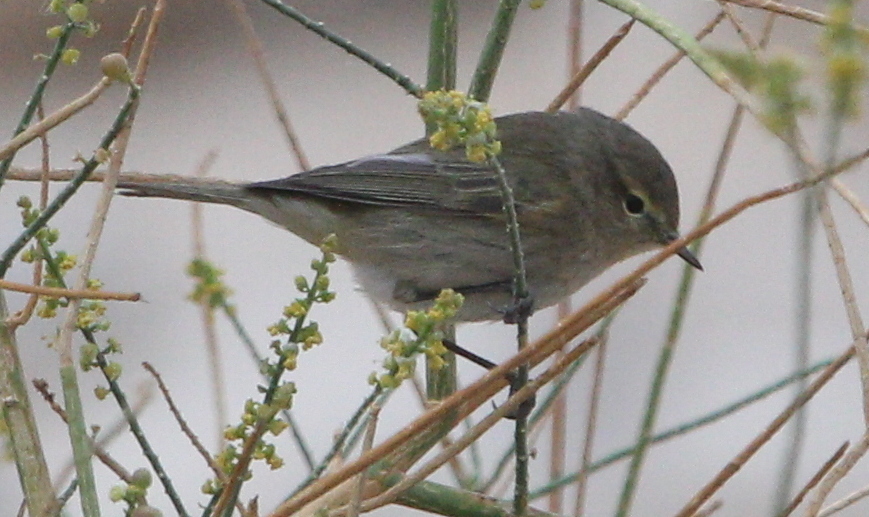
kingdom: Animalia
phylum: Chordata
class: Aves
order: Passeriformes
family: Phylloscopidae
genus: Phylloscopus
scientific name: Phylloscopus collybita
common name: Common chiffchaff
